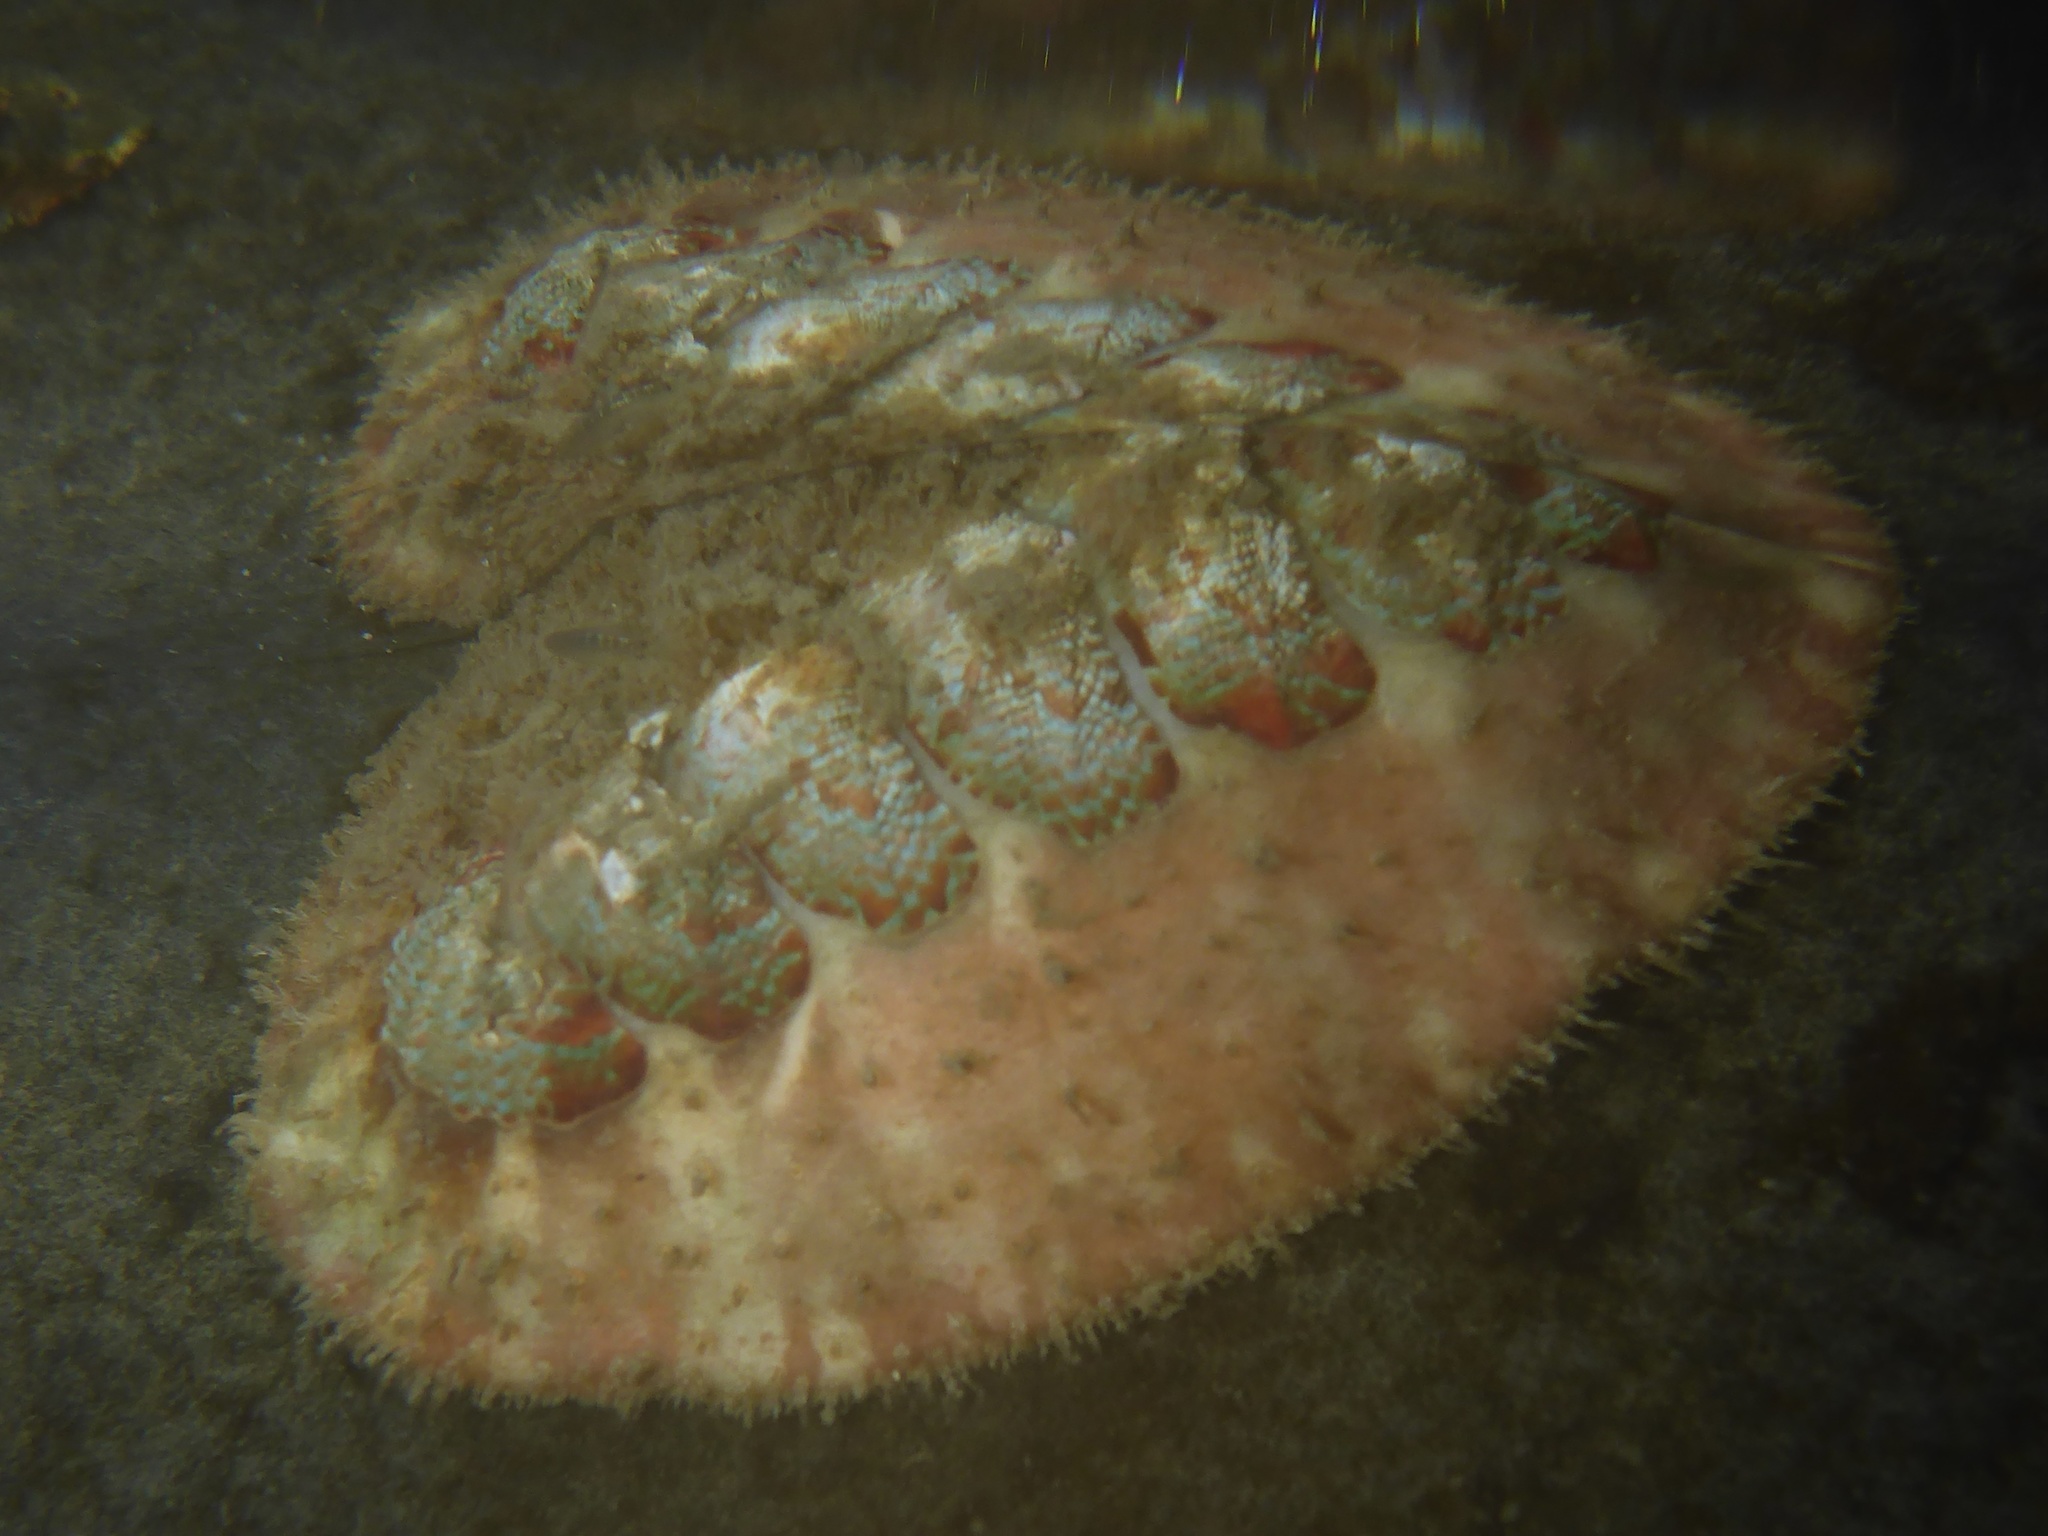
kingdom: Animalia
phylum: Mollusca
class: Polyplacophora
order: Chitonida
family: Mopaliidae
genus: Mopalia
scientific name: Mopalia spectabilis
